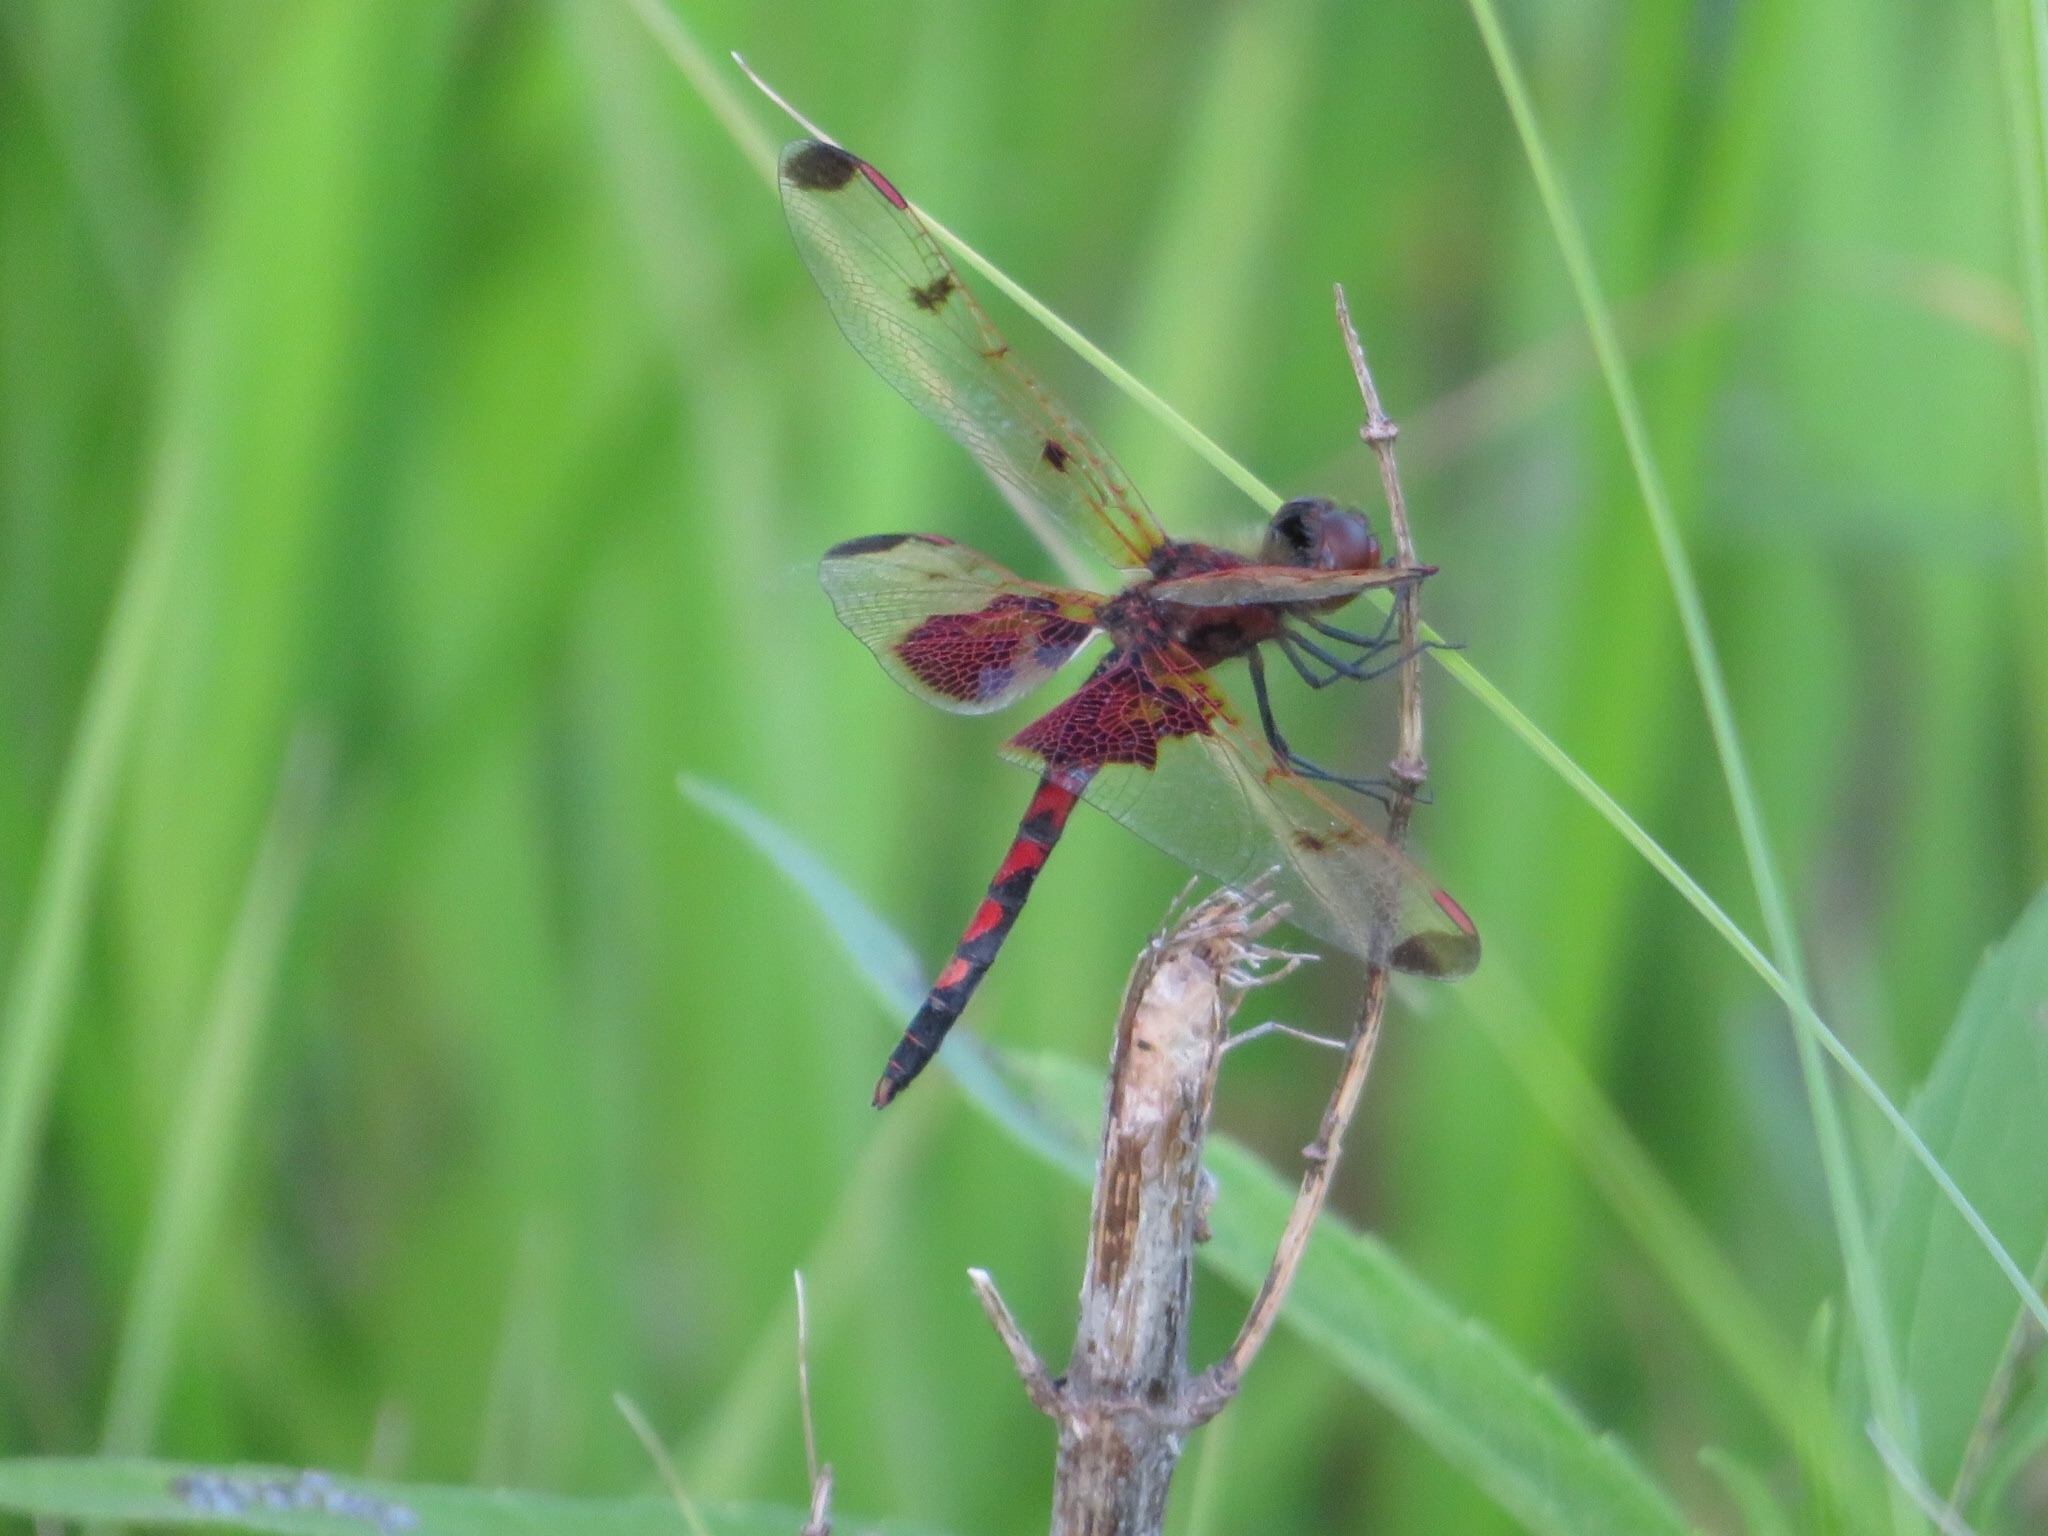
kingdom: Animalia
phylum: Arthropoda
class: Insecta
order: Odonata
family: Libellulidae
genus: Celithemis
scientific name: Celithemis elisa
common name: Calico pennant
